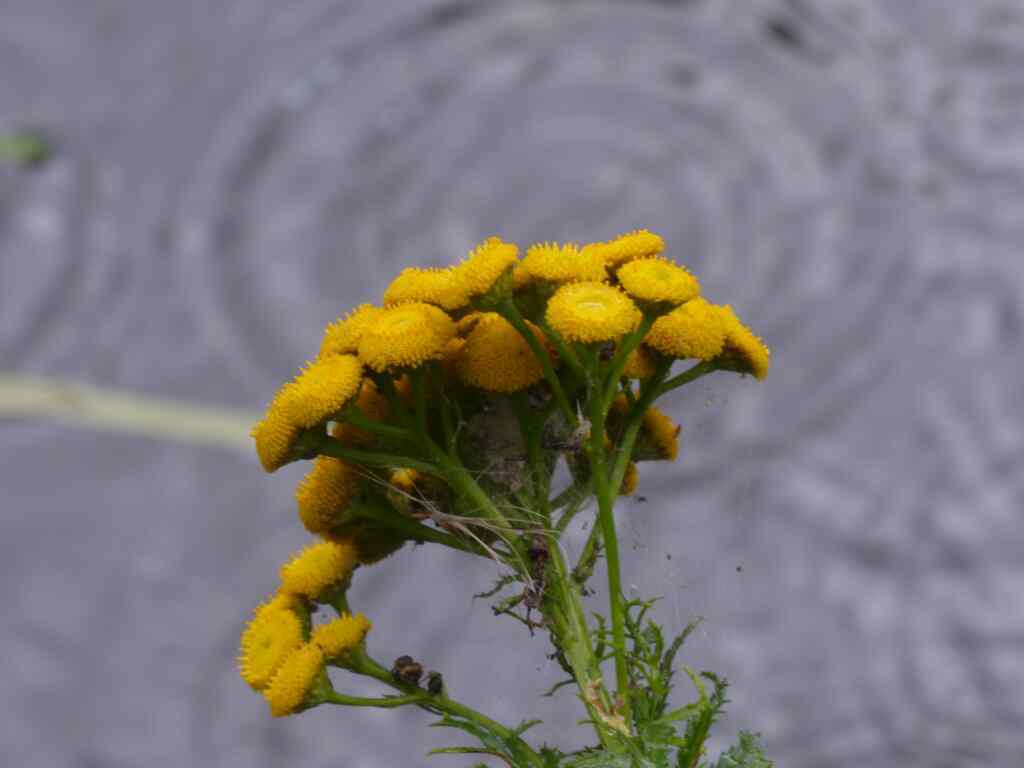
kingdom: Plantae
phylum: Tracheophyta
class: Magnoliopsida
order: Asterales
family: Asteraceae
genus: Tanacetum
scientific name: Tanacetum vulgare
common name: Common tansy
